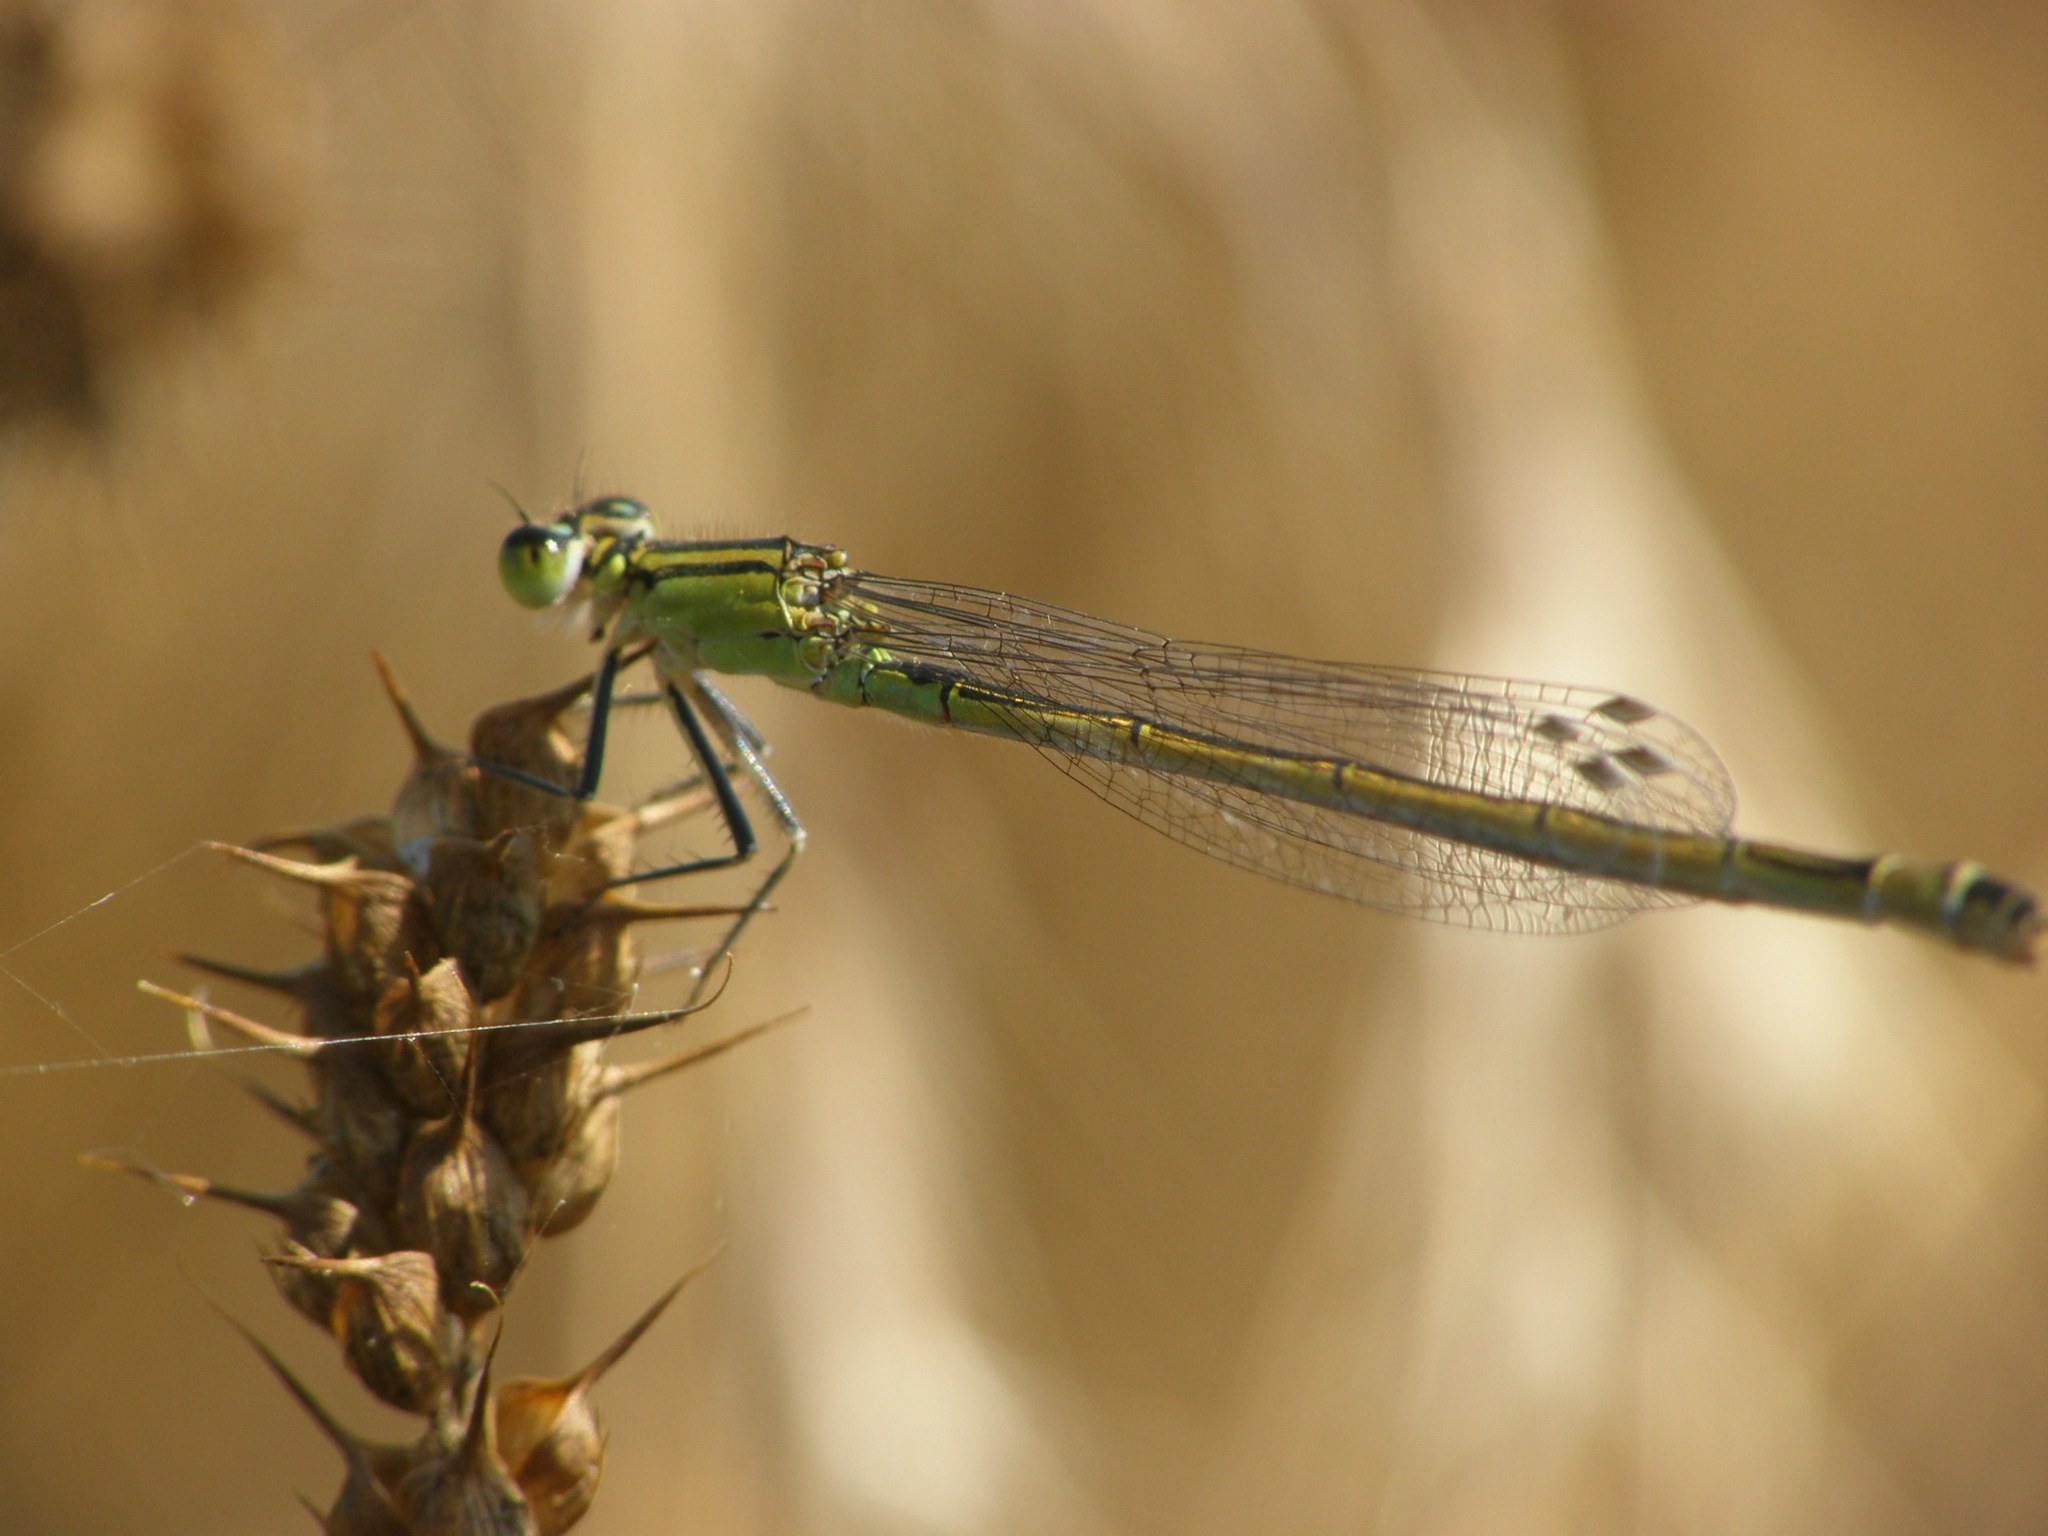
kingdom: Animalia
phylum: Arthropoda
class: Insecta
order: Odonata
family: Coenagrionidae
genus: Ischnura
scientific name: Ischnura elegans
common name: Blue-tailed damselfly
